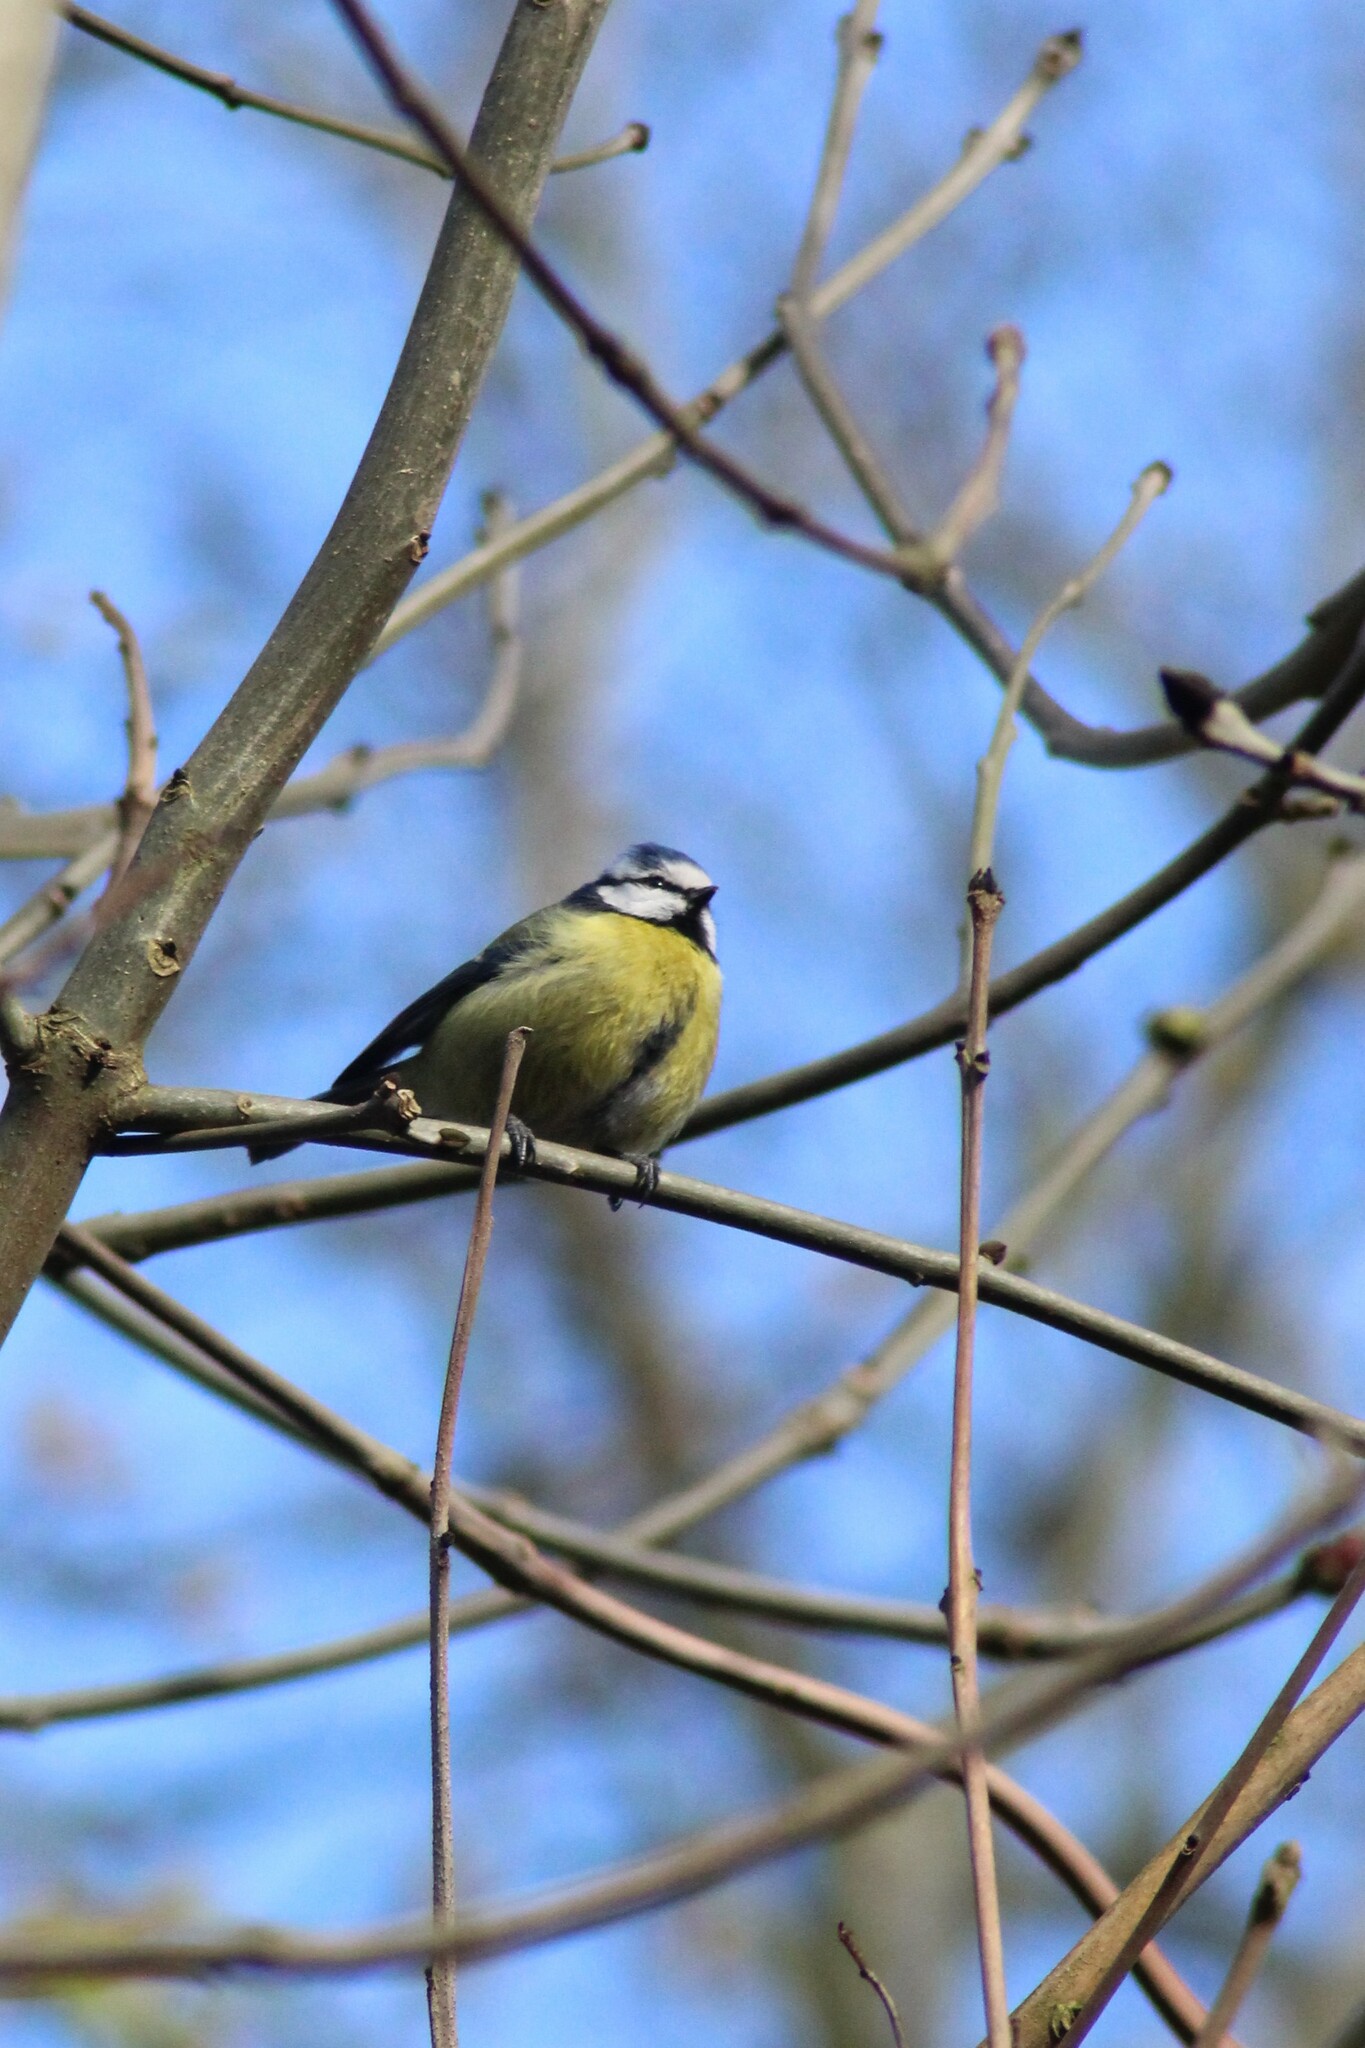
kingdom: Animalia
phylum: Chordata
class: Aves
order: Passeriformes
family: Paridae
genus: Cyanistes
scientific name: Cyanistes caeruleus
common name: Eurasian blue tit
